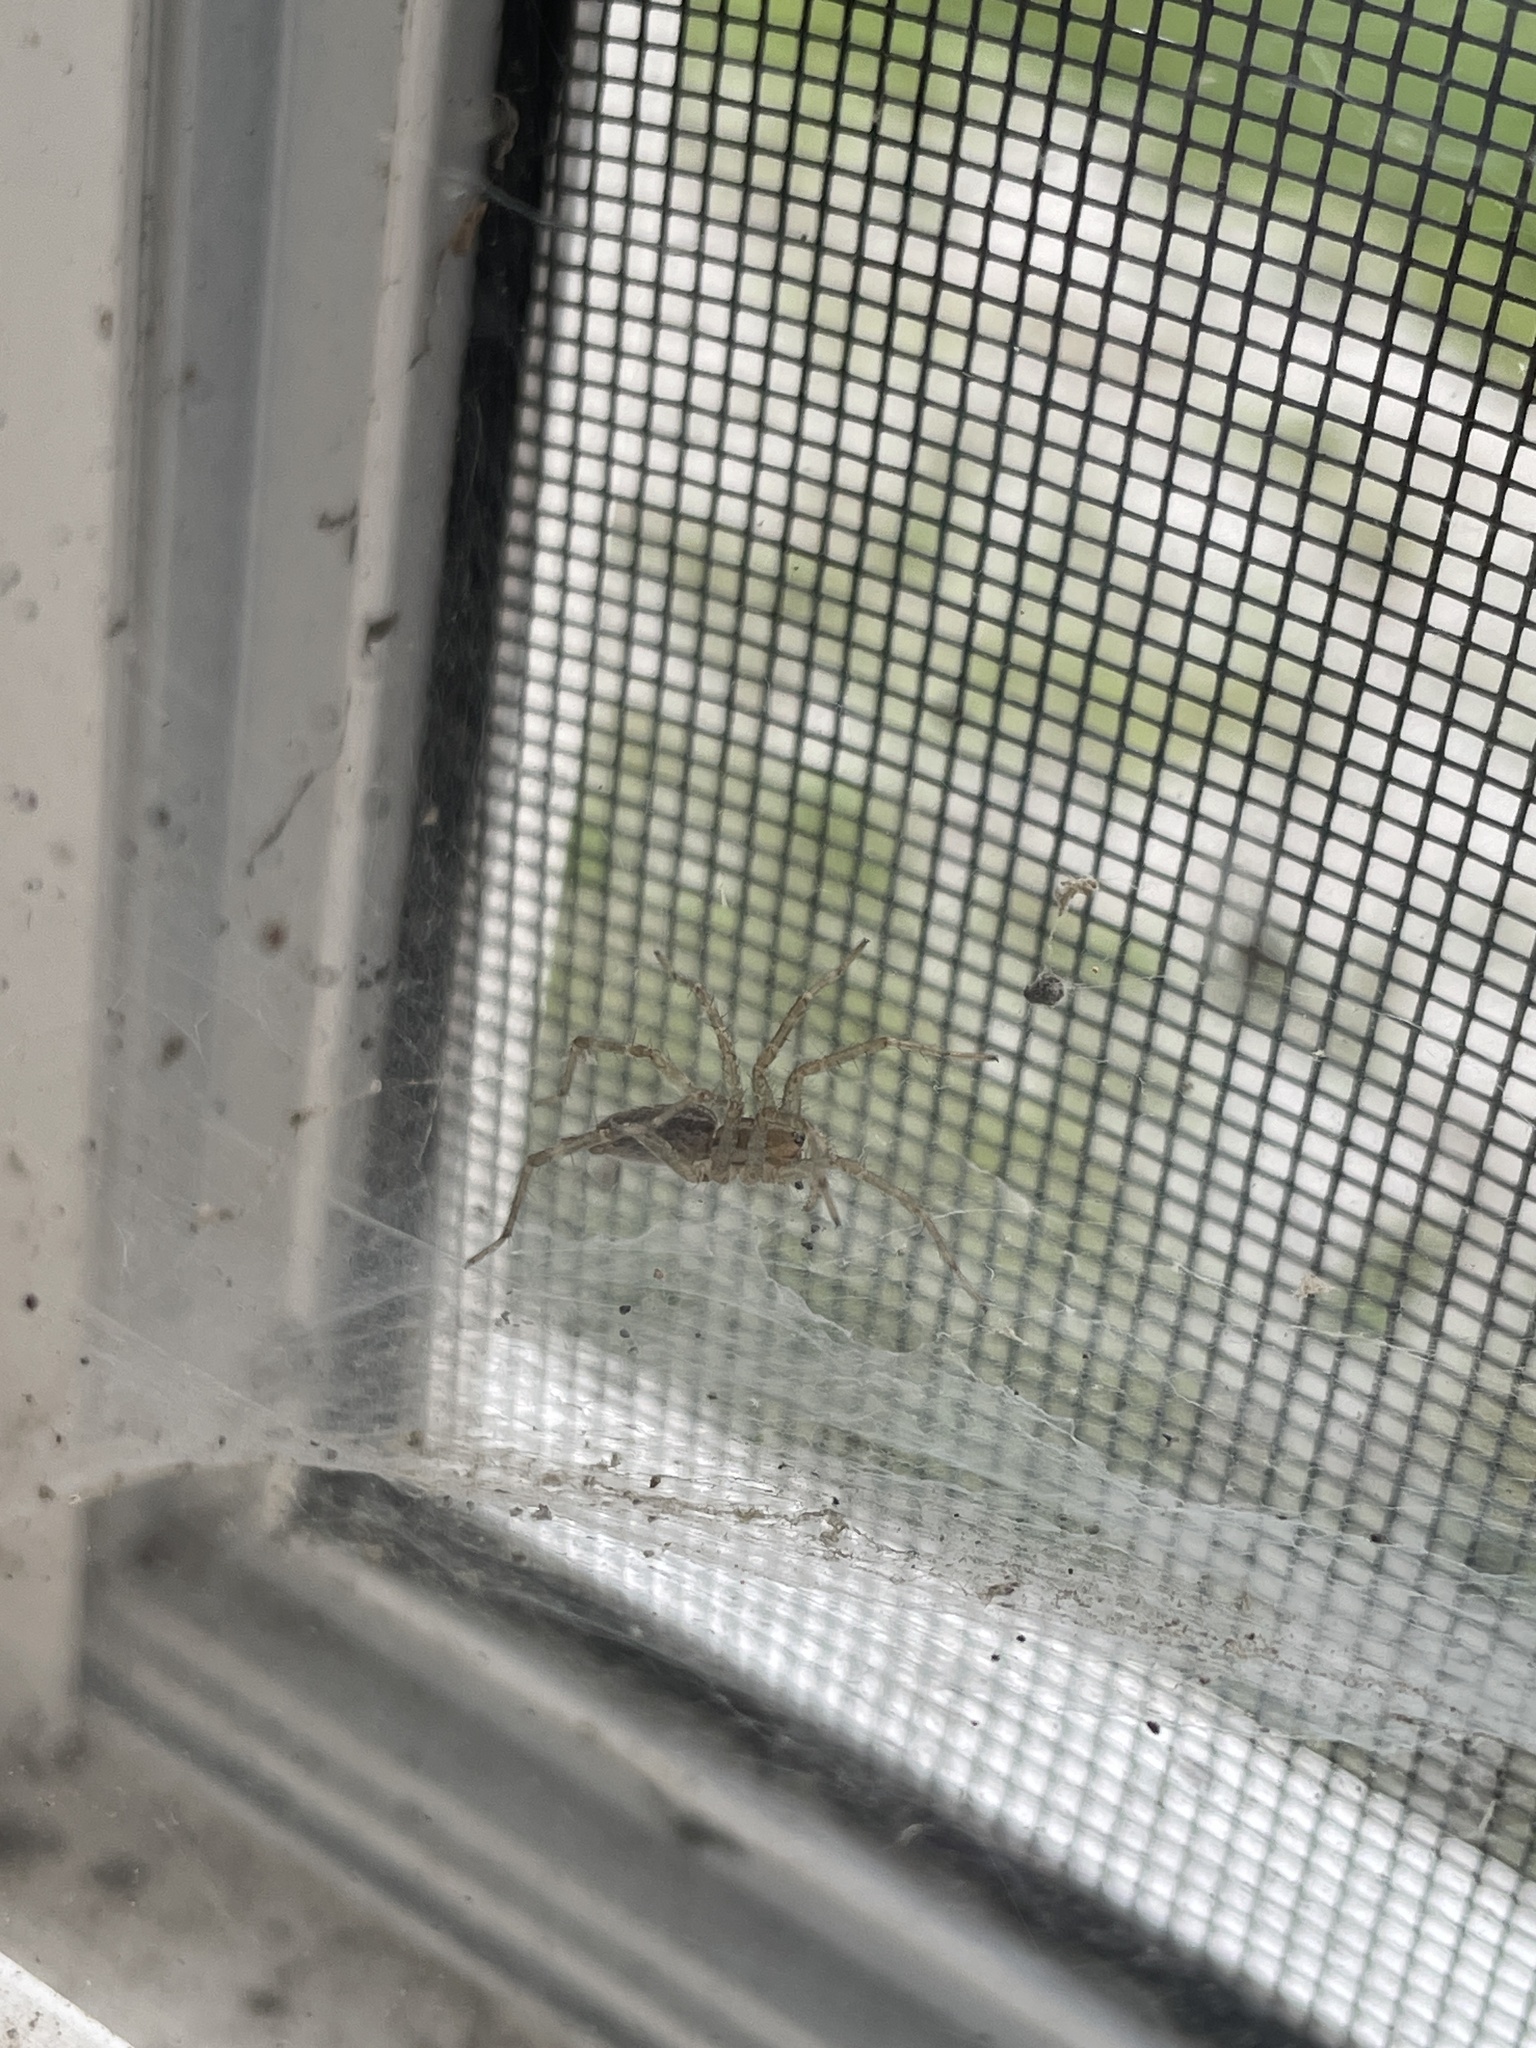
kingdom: Animalia
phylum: Arthropoda
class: Arachnida
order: Araneae
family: Agelenidae
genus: Agelenopsis
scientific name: Agelenopsis
